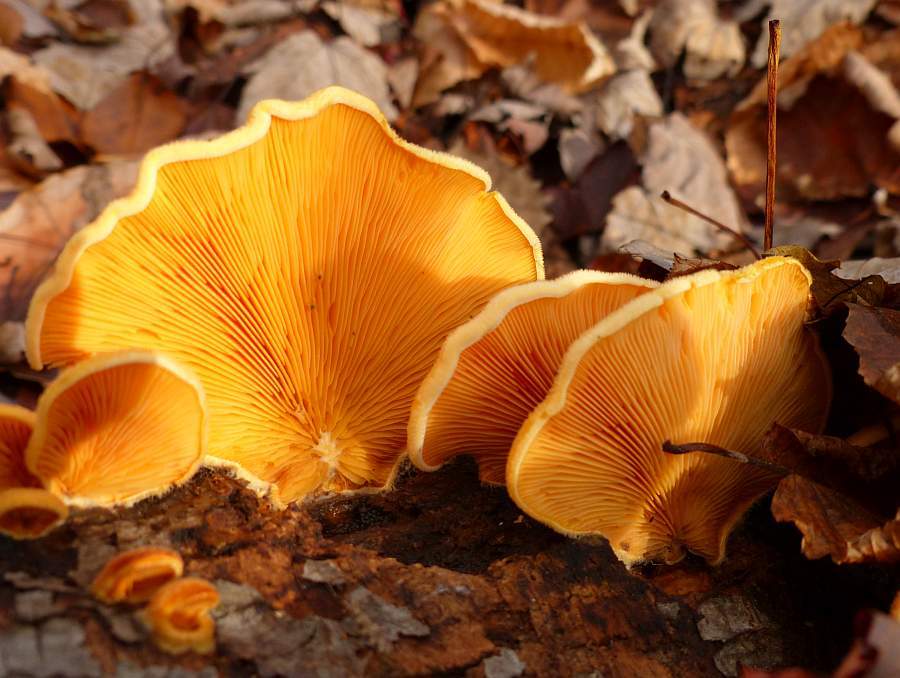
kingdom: Fungi
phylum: Basidiomycota
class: Agaricomycetes
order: Agaricales
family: Phyllotopsidaceae
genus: Phyllotopsis
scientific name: Phyllotopsis nidulans
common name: Orange mock oyster
